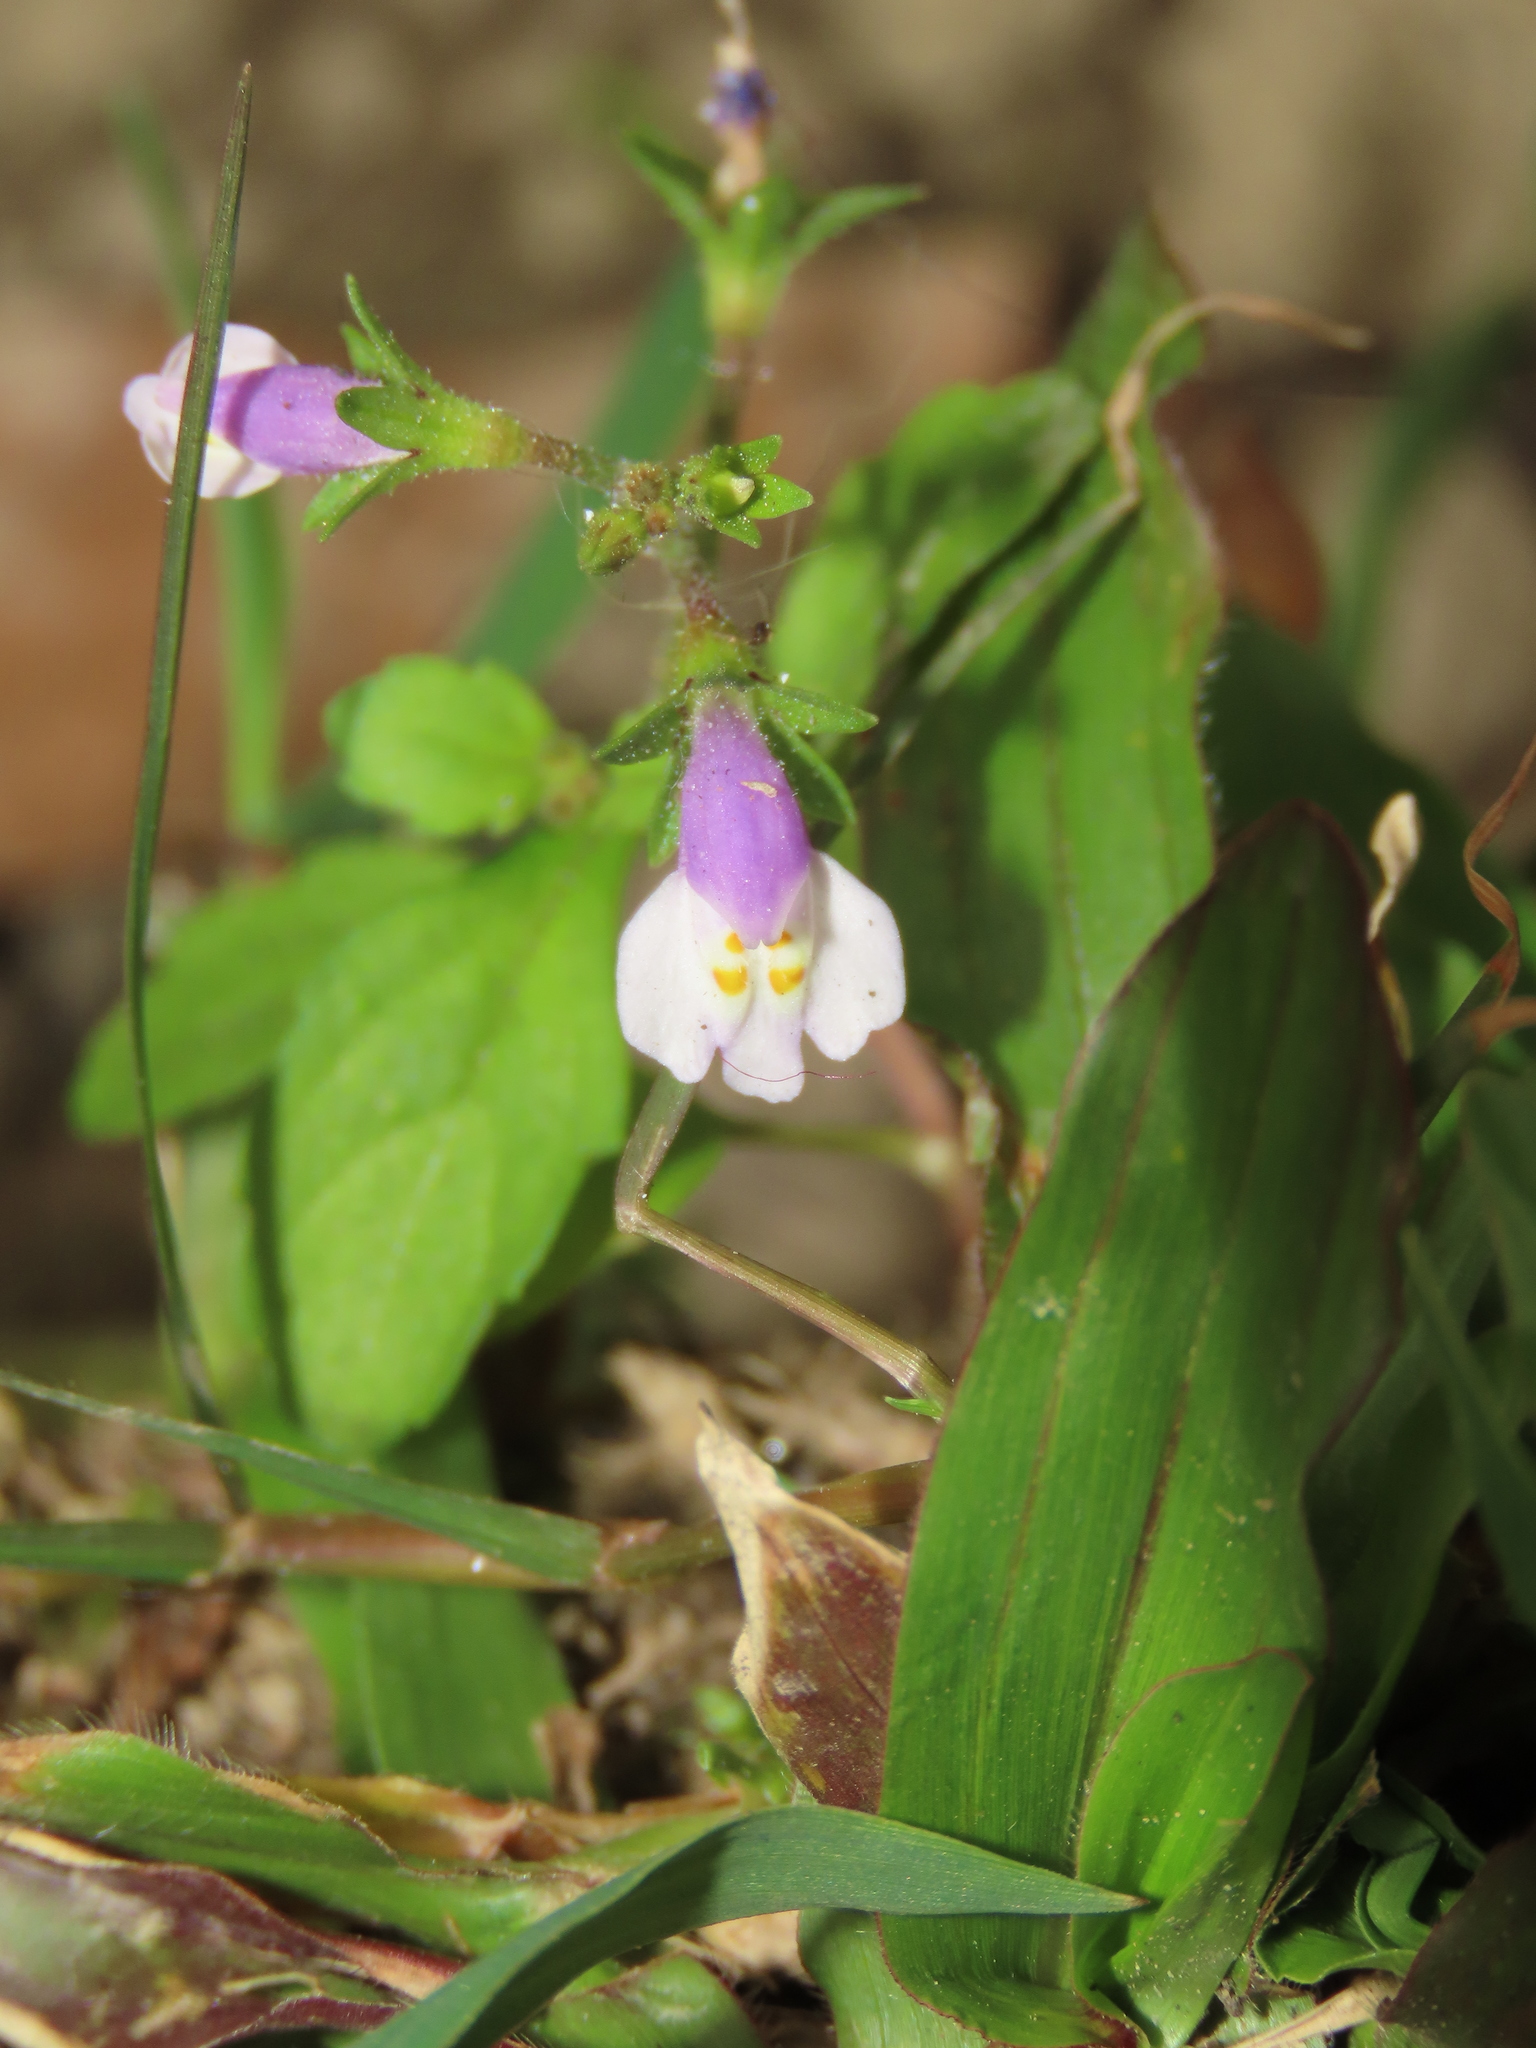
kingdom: Plantae
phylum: Tracheophyta
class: Magnoliopsida
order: Lamiales
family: Mazaceae
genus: Mazus
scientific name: Mazus pumilus
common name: Japanese mazus
